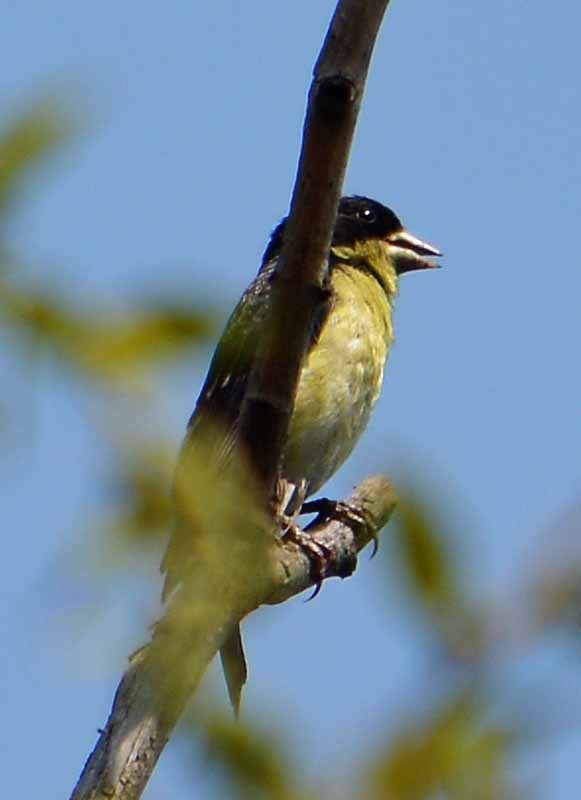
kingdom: Animalia
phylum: Chordata
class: Aves
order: Passeriformes
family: Fringillidae
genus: Spinus
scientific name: Spinus psaltria
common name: Lesser goldfinch
